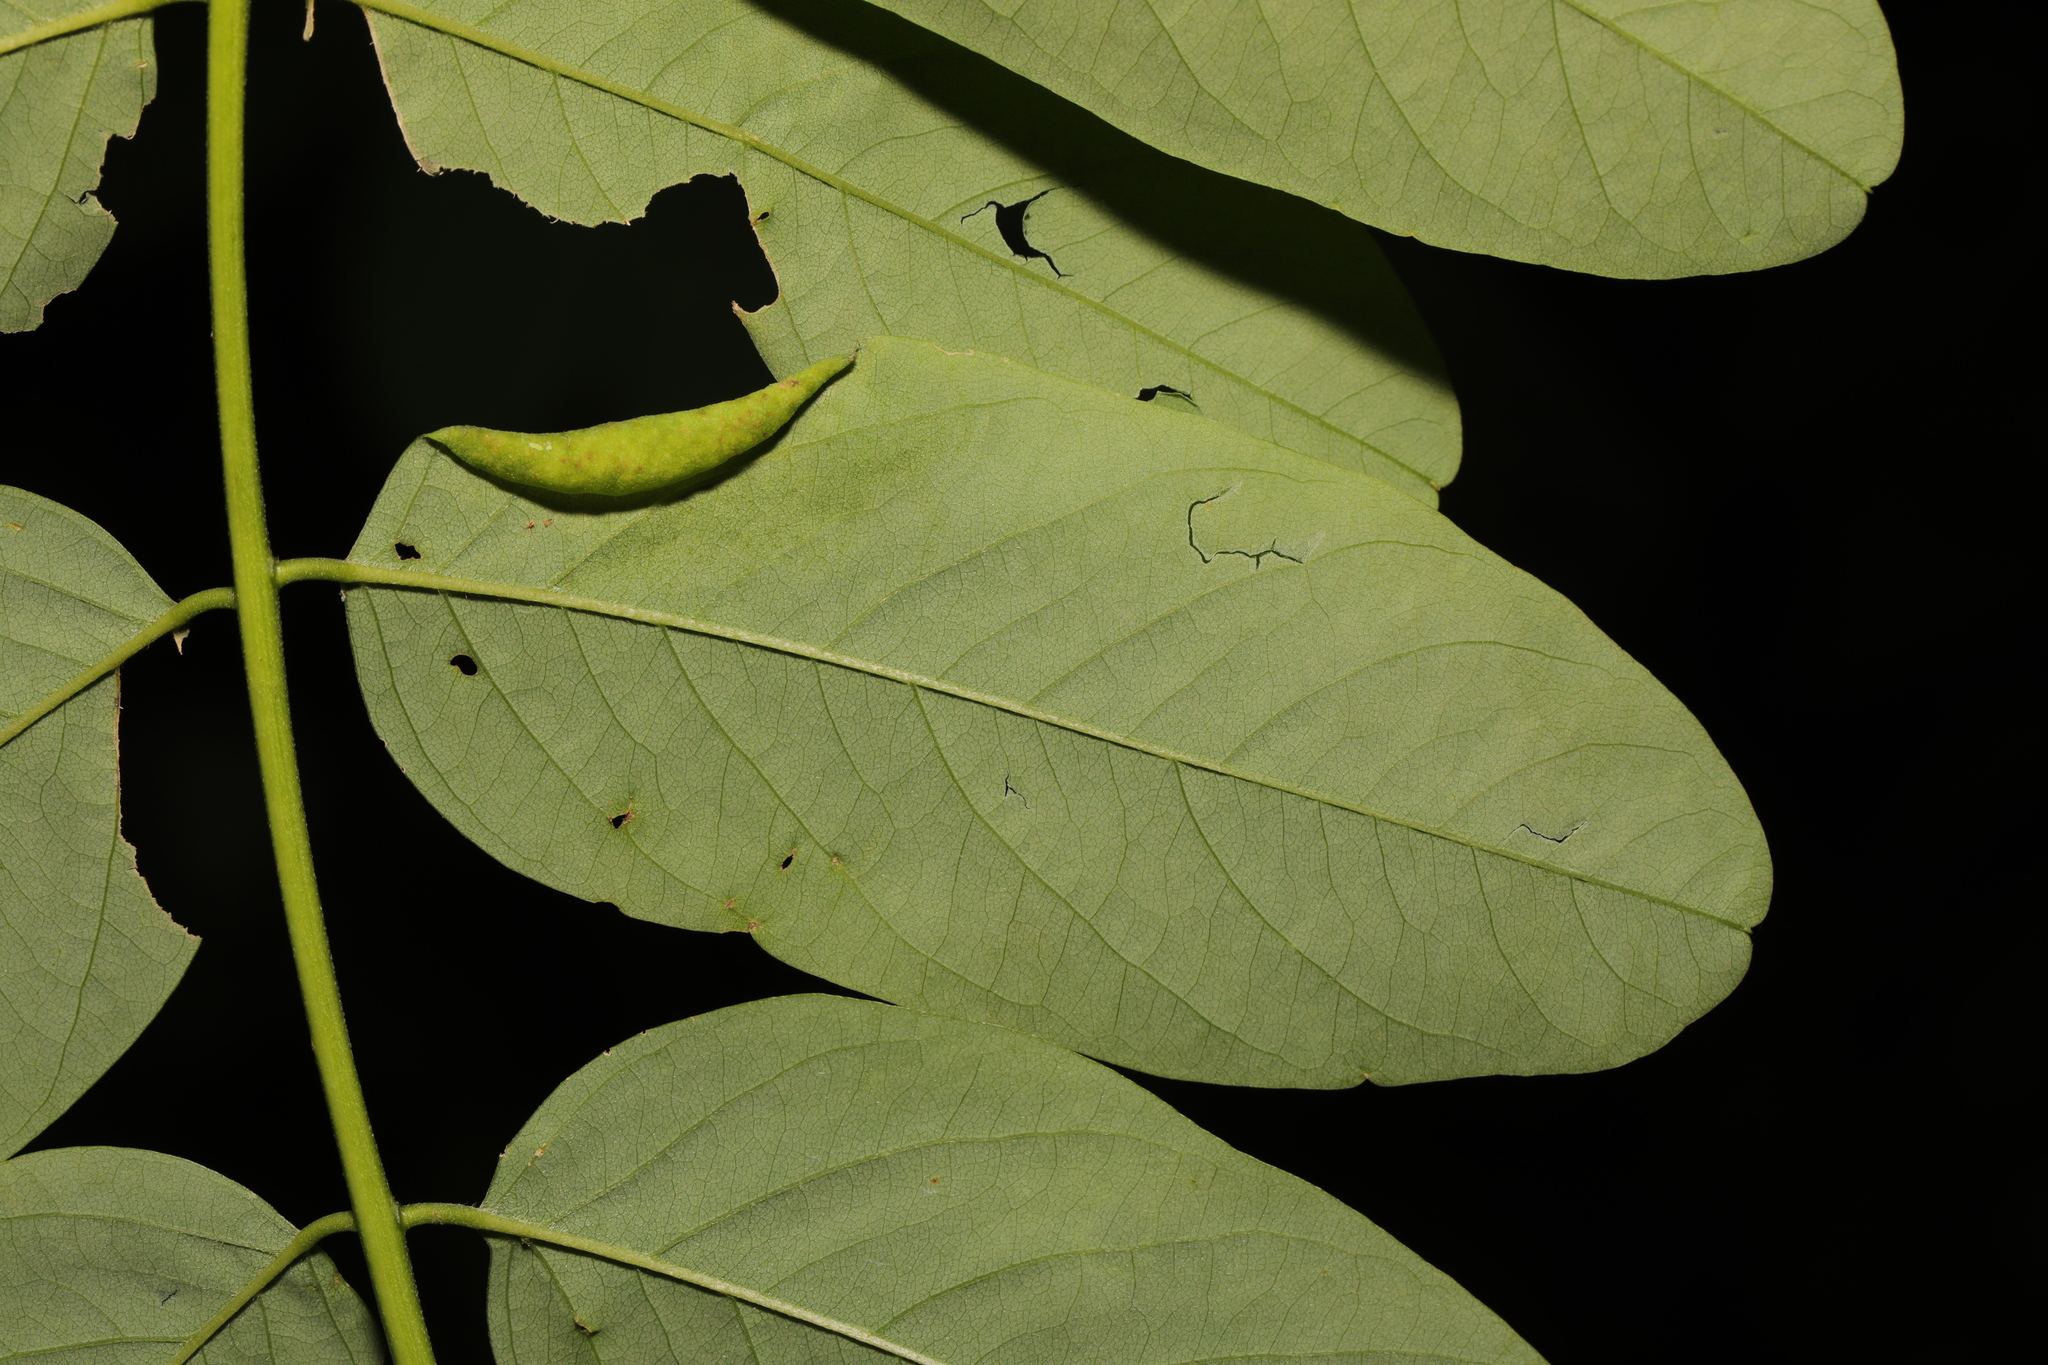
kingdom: Animalia
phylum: Arthropoda
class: Insecta
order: Diptera
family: Cecidomyiidae
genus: Obolodiplosis
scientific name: Obolodiplosis robiniae
